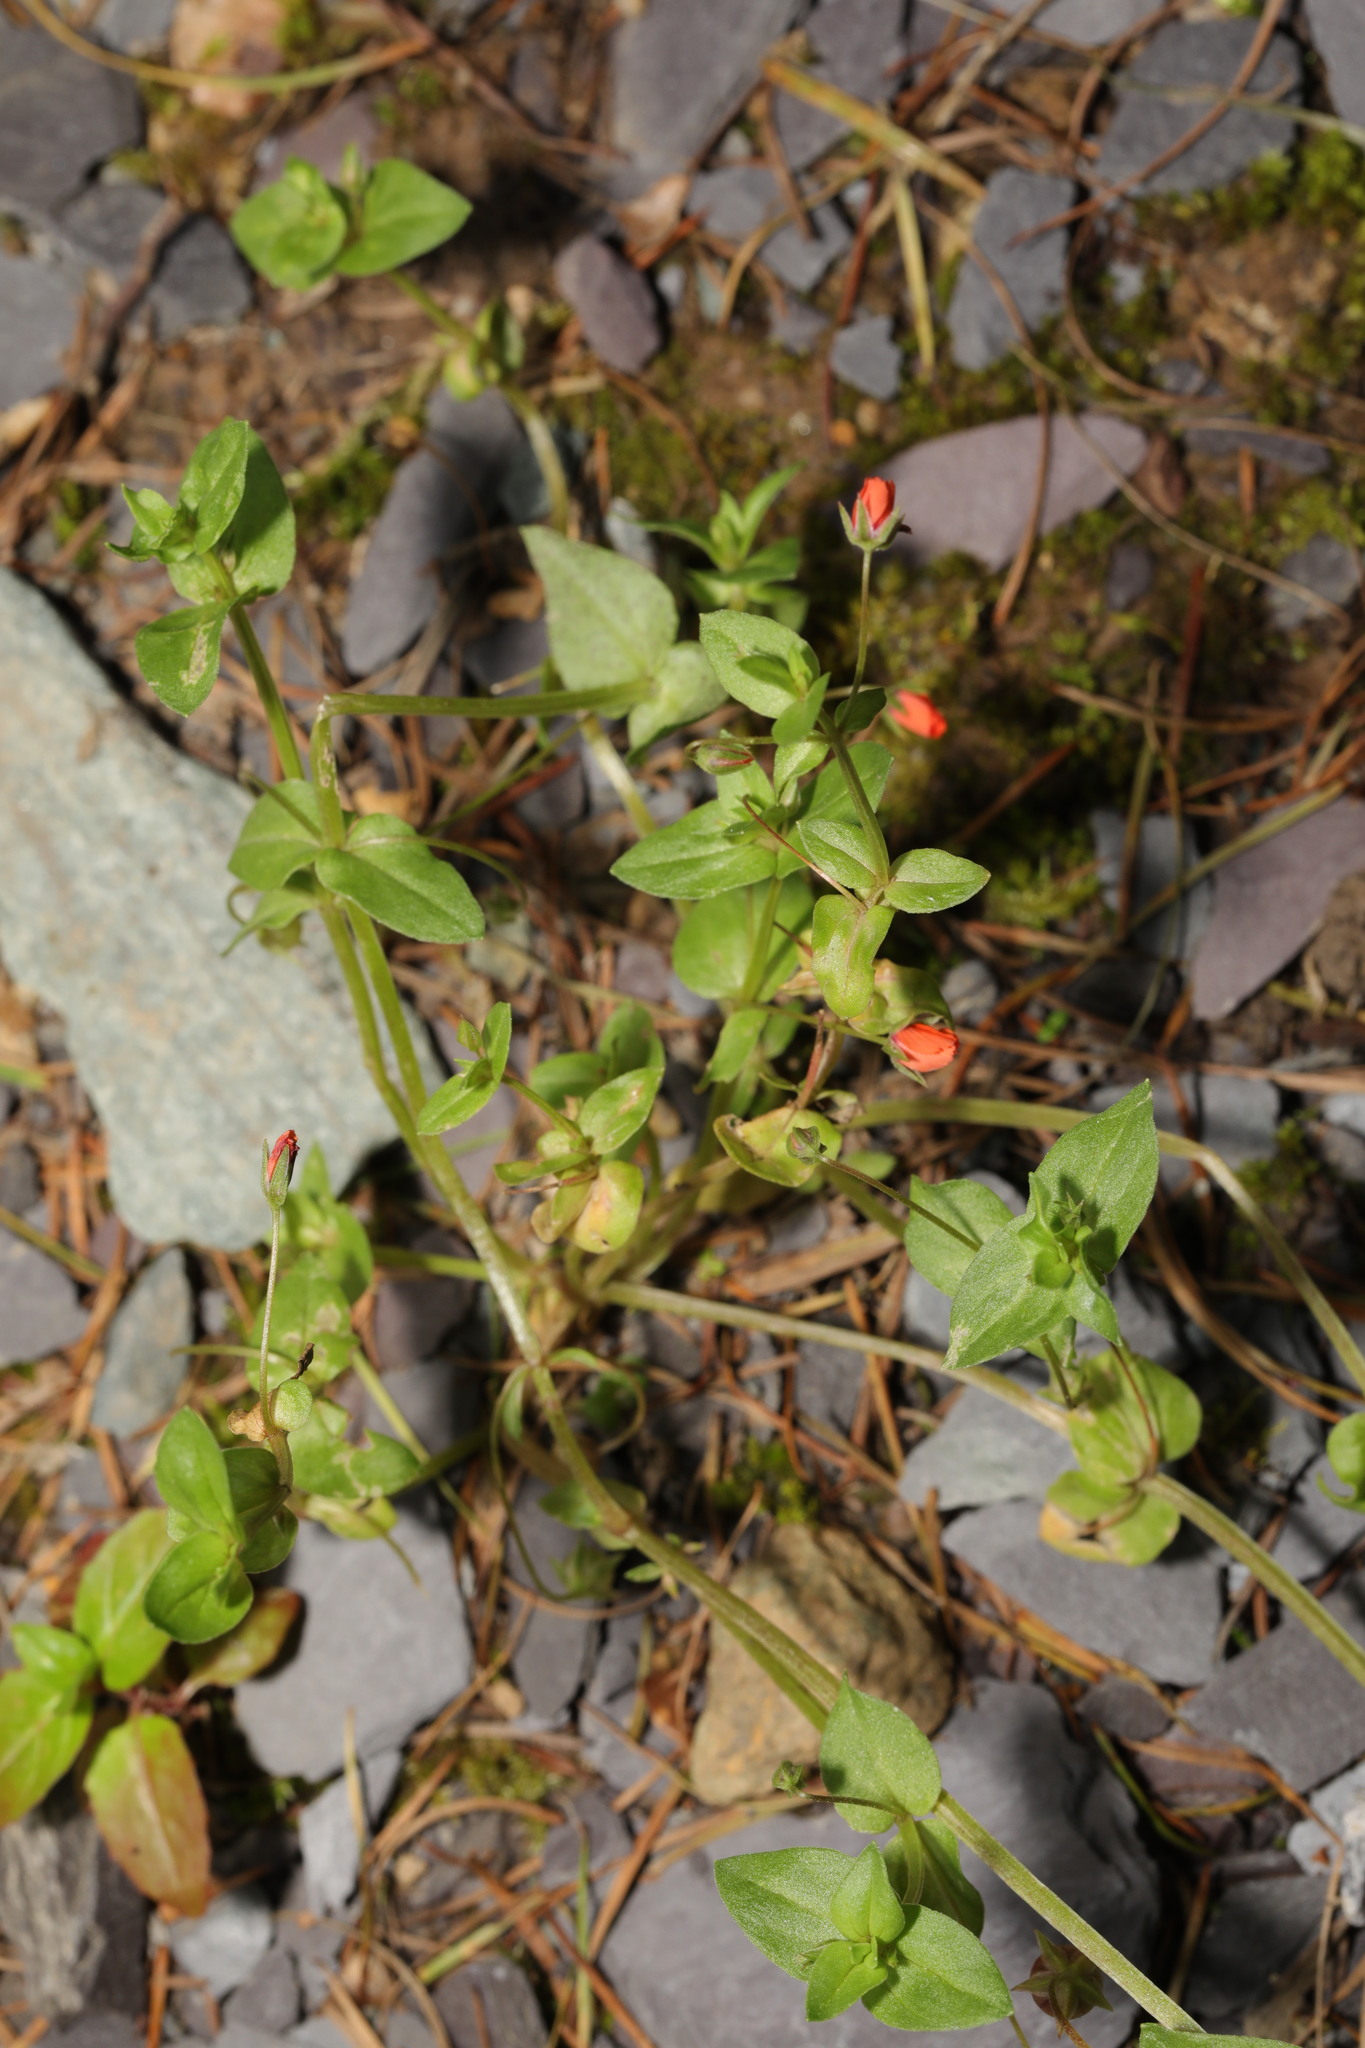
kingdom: Plantae
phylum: Tracheophyta
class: Magnoliopsida
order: Ericales
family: Primulaceae
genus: Lysimachia
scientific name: Lysimachia arvensis
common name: Scarlet pimpernel
